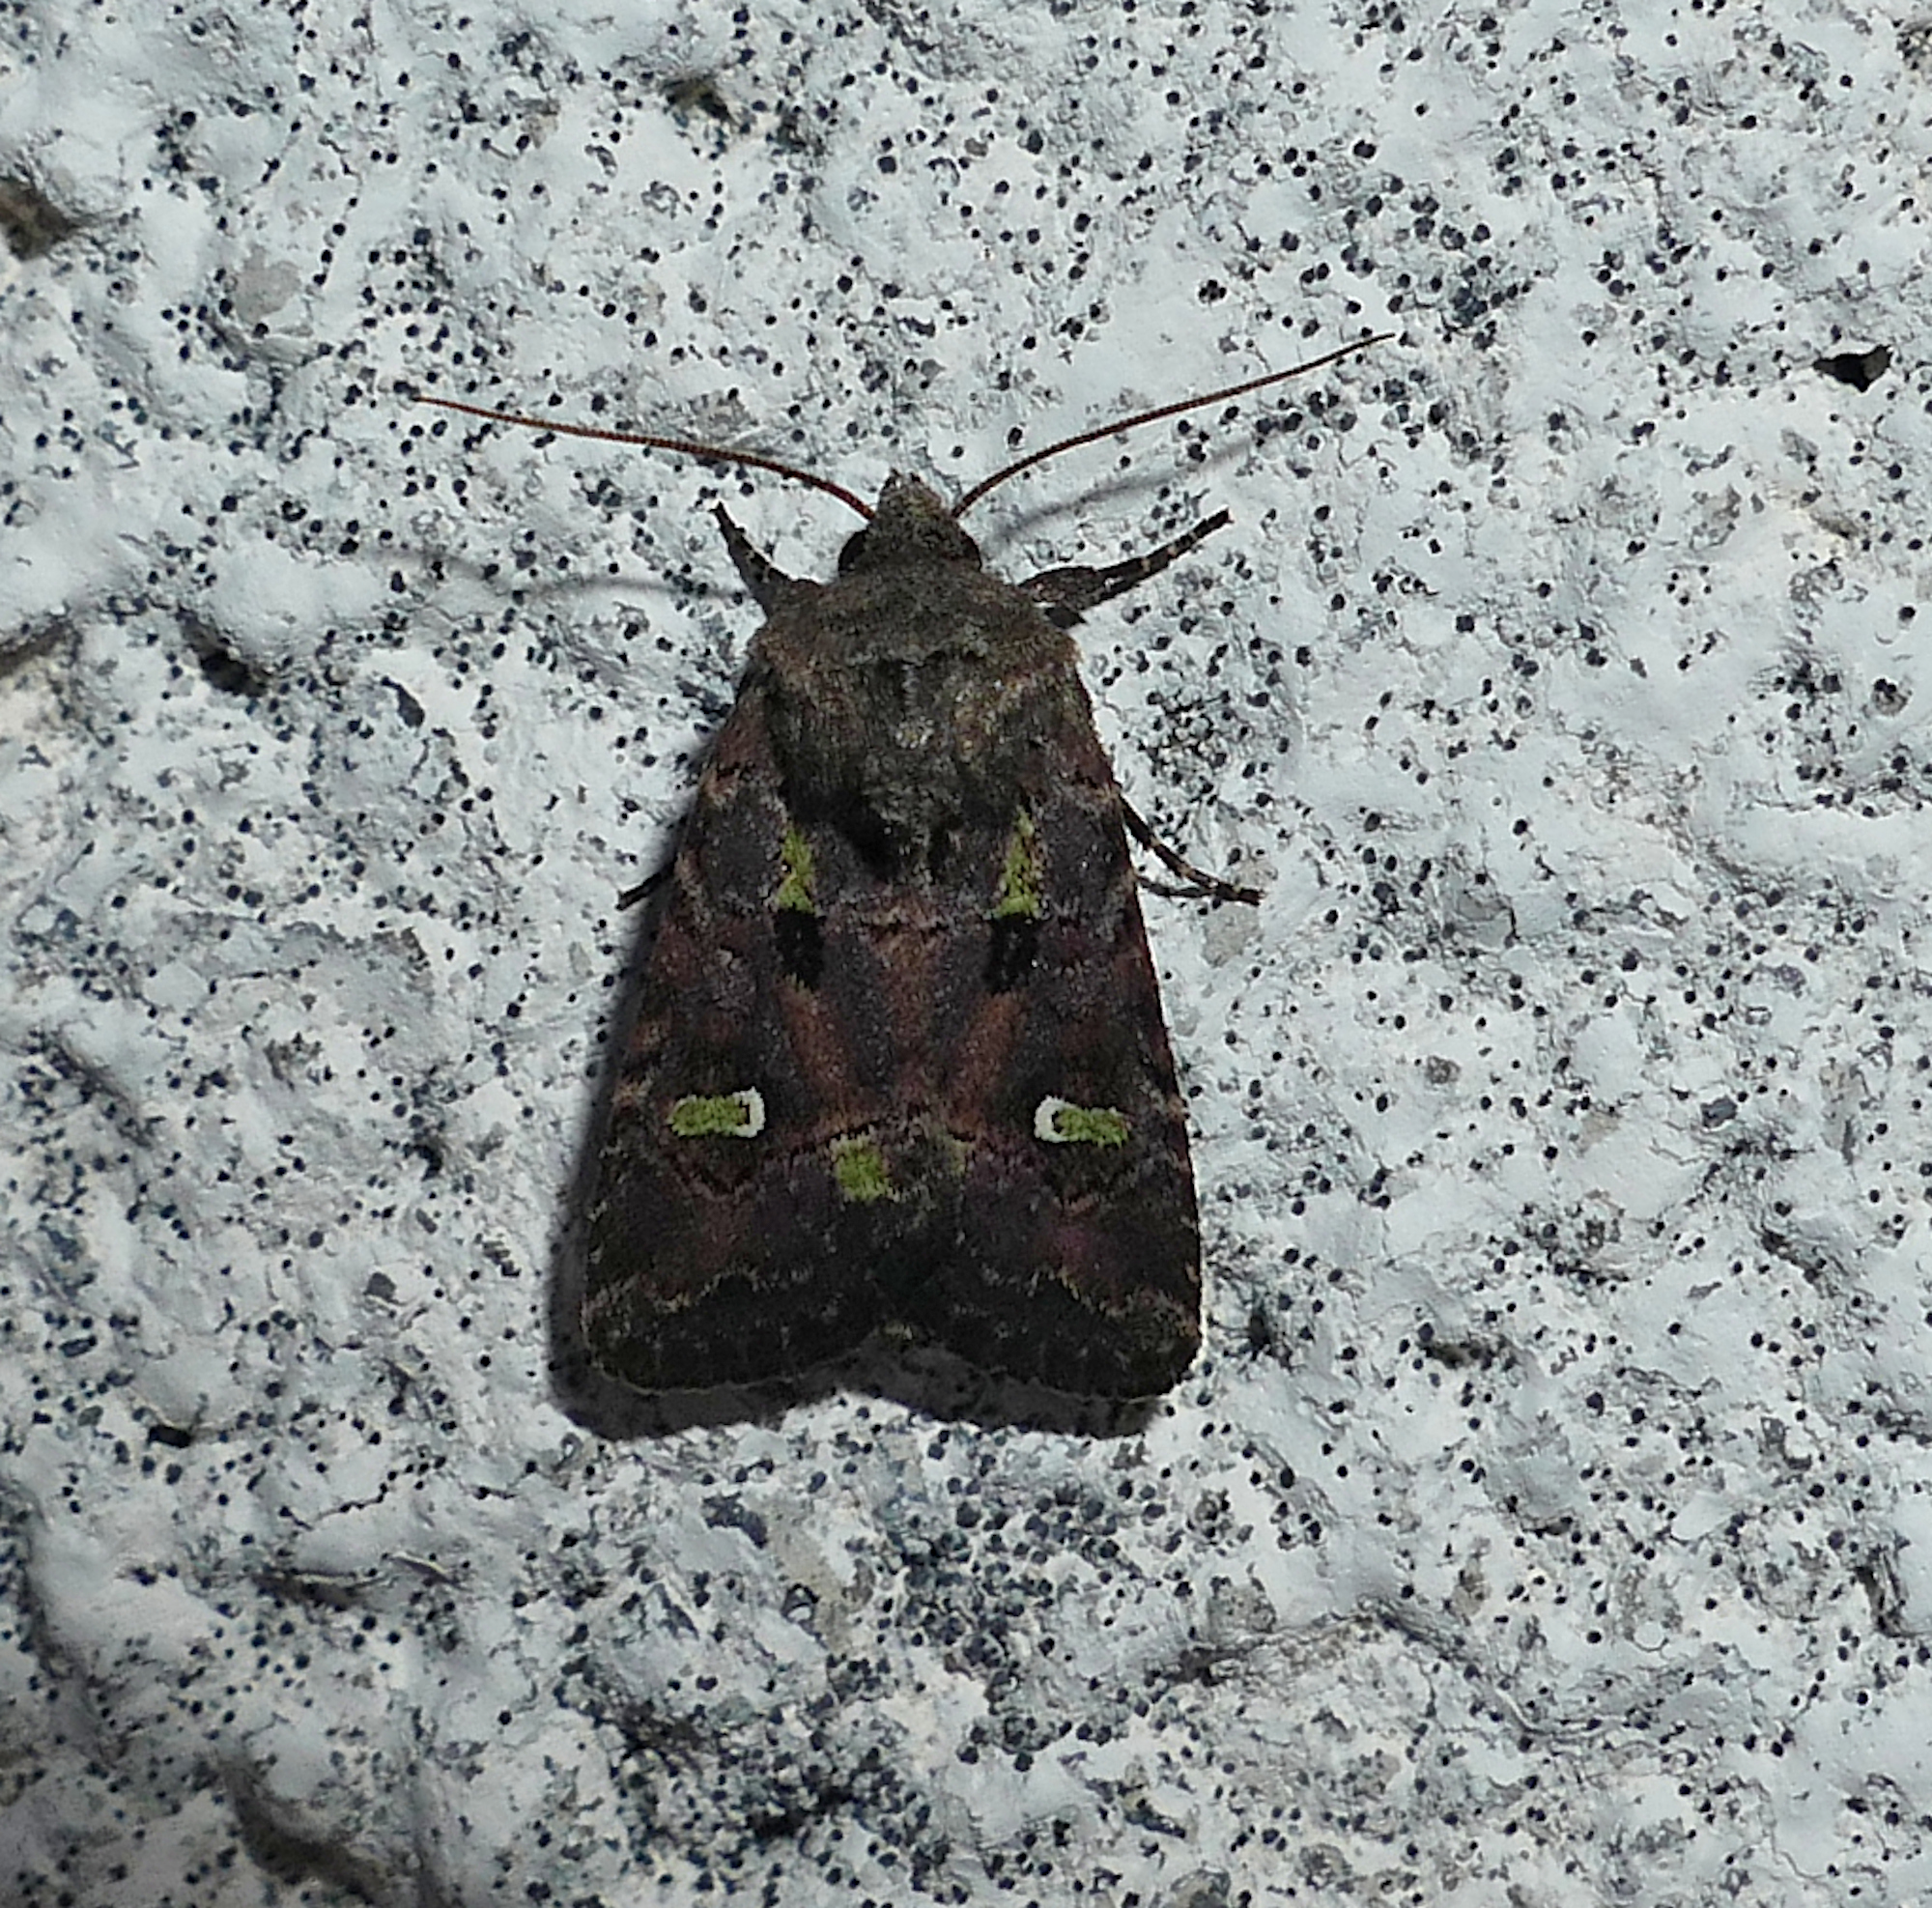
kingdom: Animalia
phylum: Arthropoda
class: Insecta
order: Lepidoptera
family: Noctuidae
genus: Lacinipolia
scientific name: Lacinipolia renigera
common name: Kidney-spotted minor
